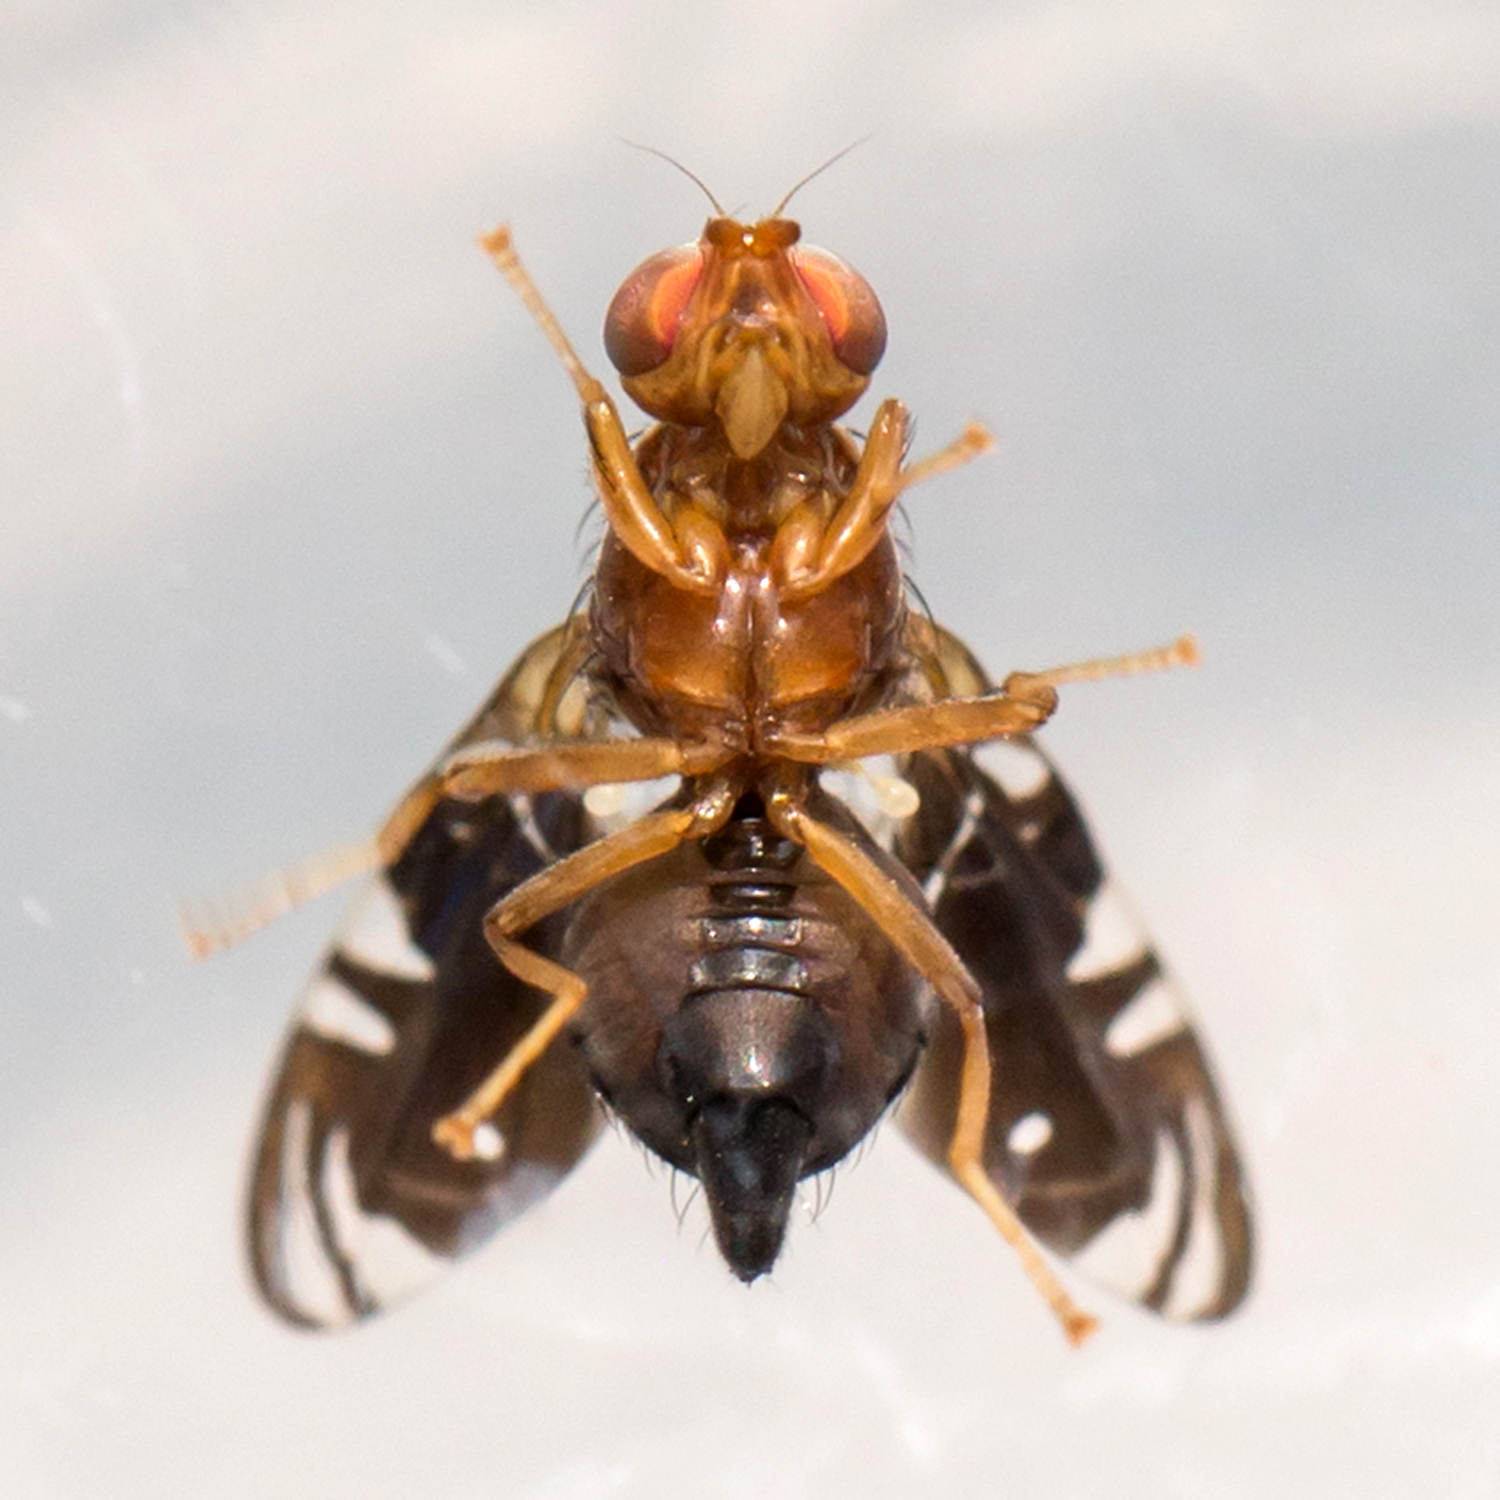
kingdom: Animalia
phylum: Arthropoda
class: Insecta
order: Diptera
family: Tephritidae
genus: Parastenopa
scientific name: Parastenopa limata
